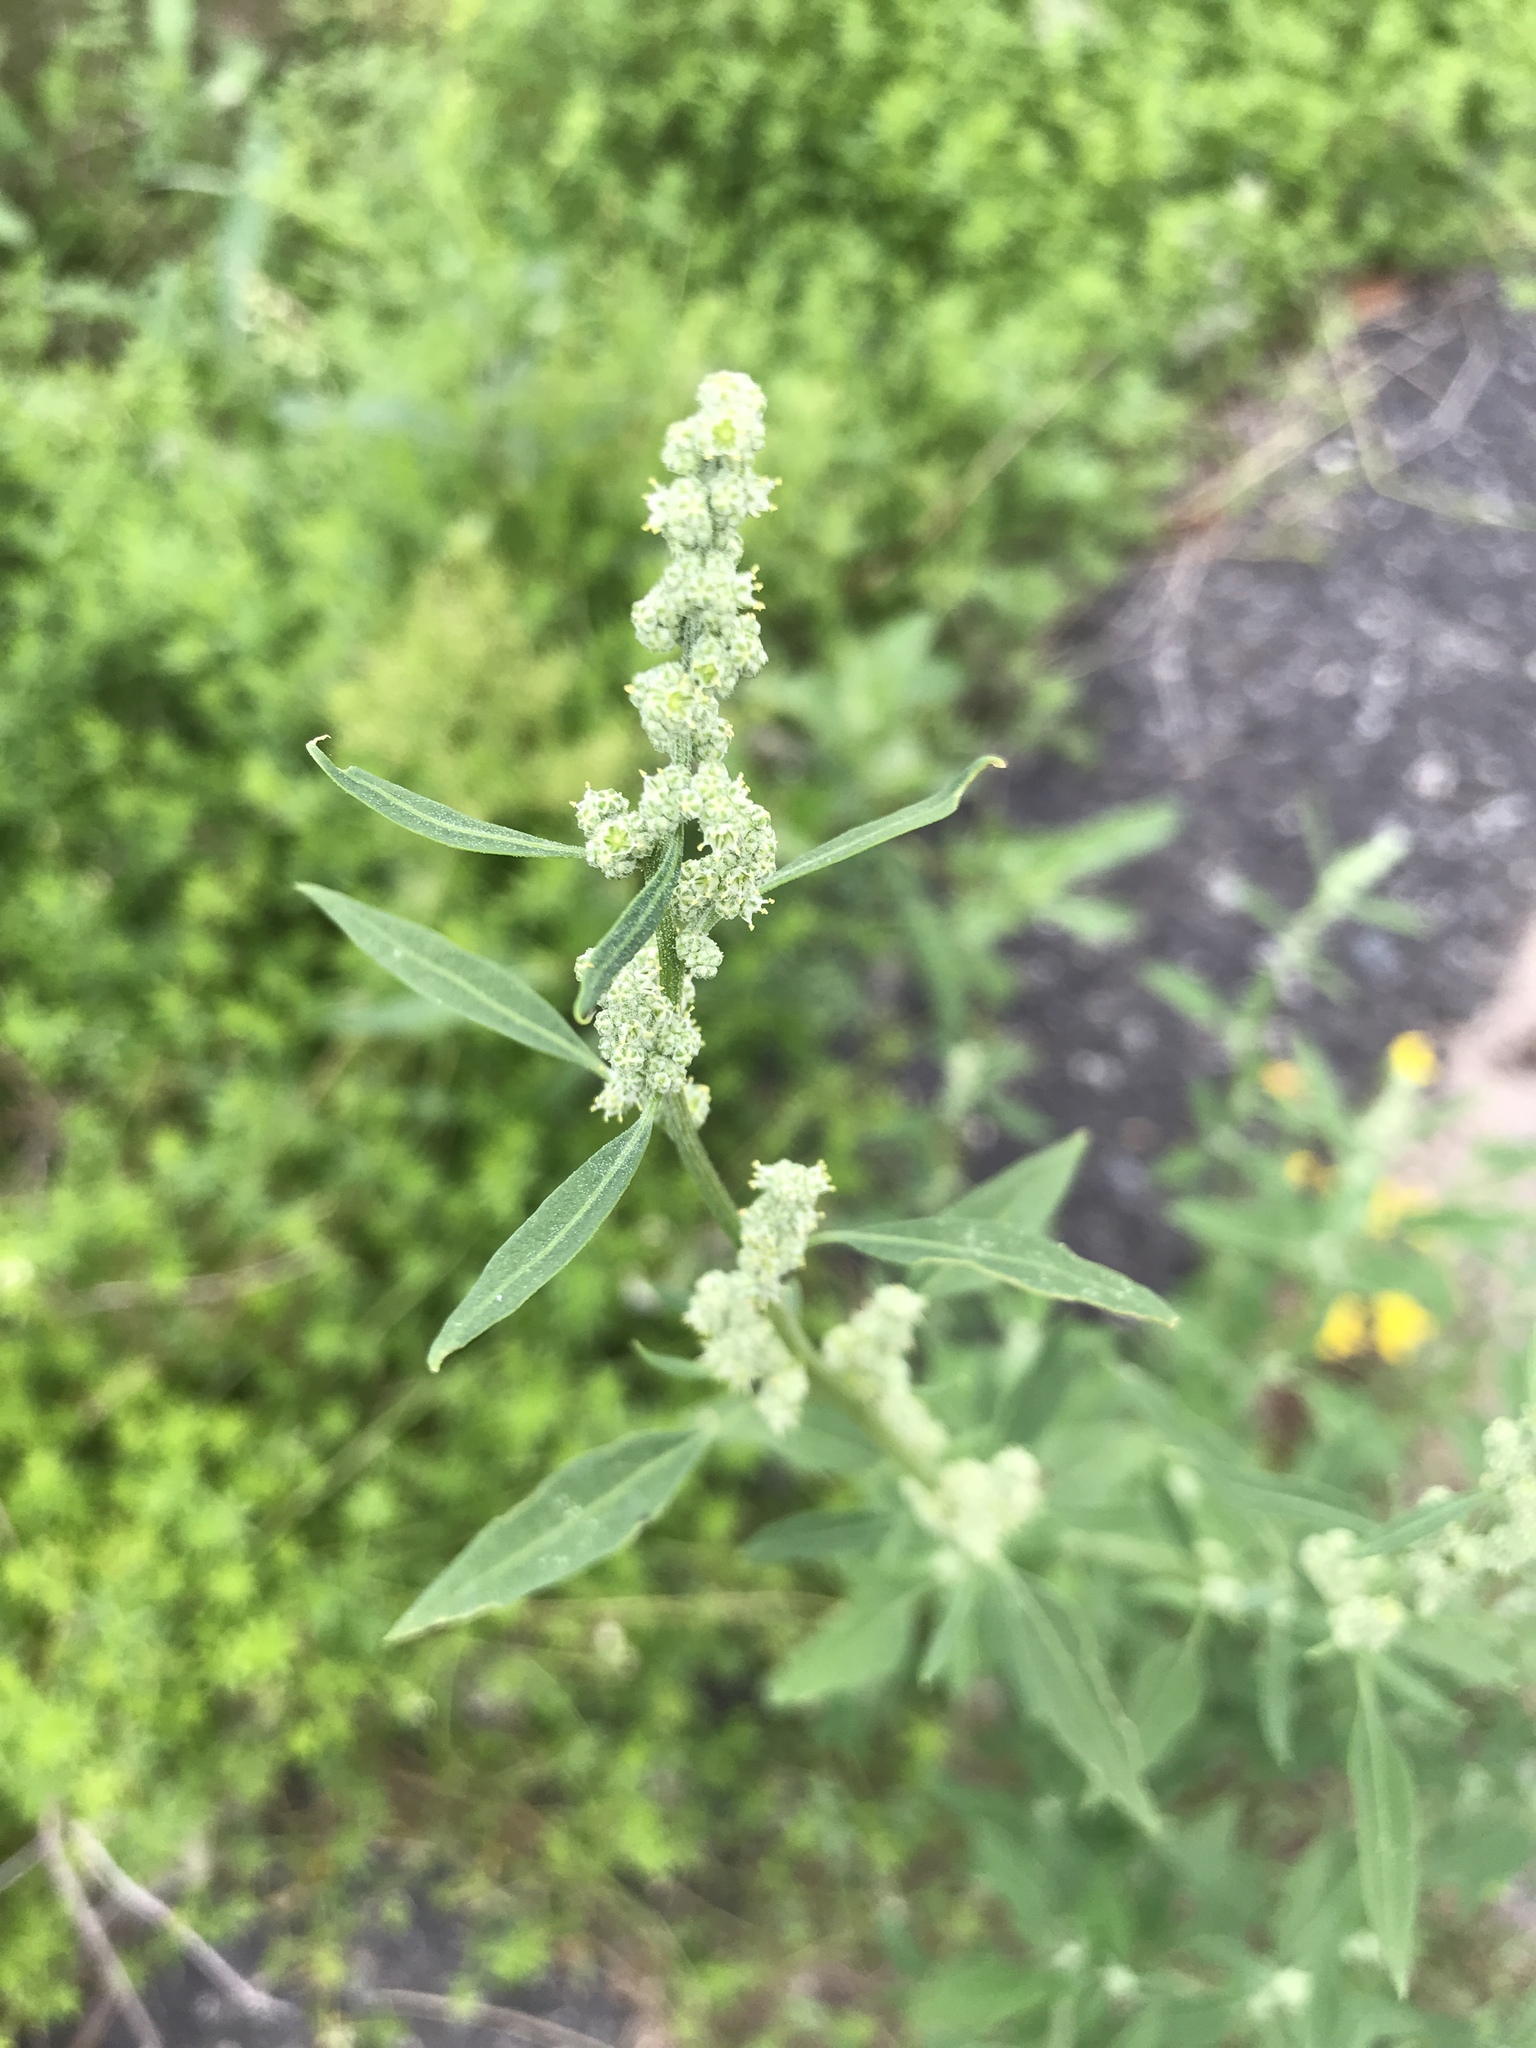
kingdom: Plantae
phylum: Tracheophyta
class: Magnoliopsida
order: Caryophyllales
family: Amaranthaceae
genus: Chenopodium
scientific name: Chenopodium album
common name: Fat-hen
